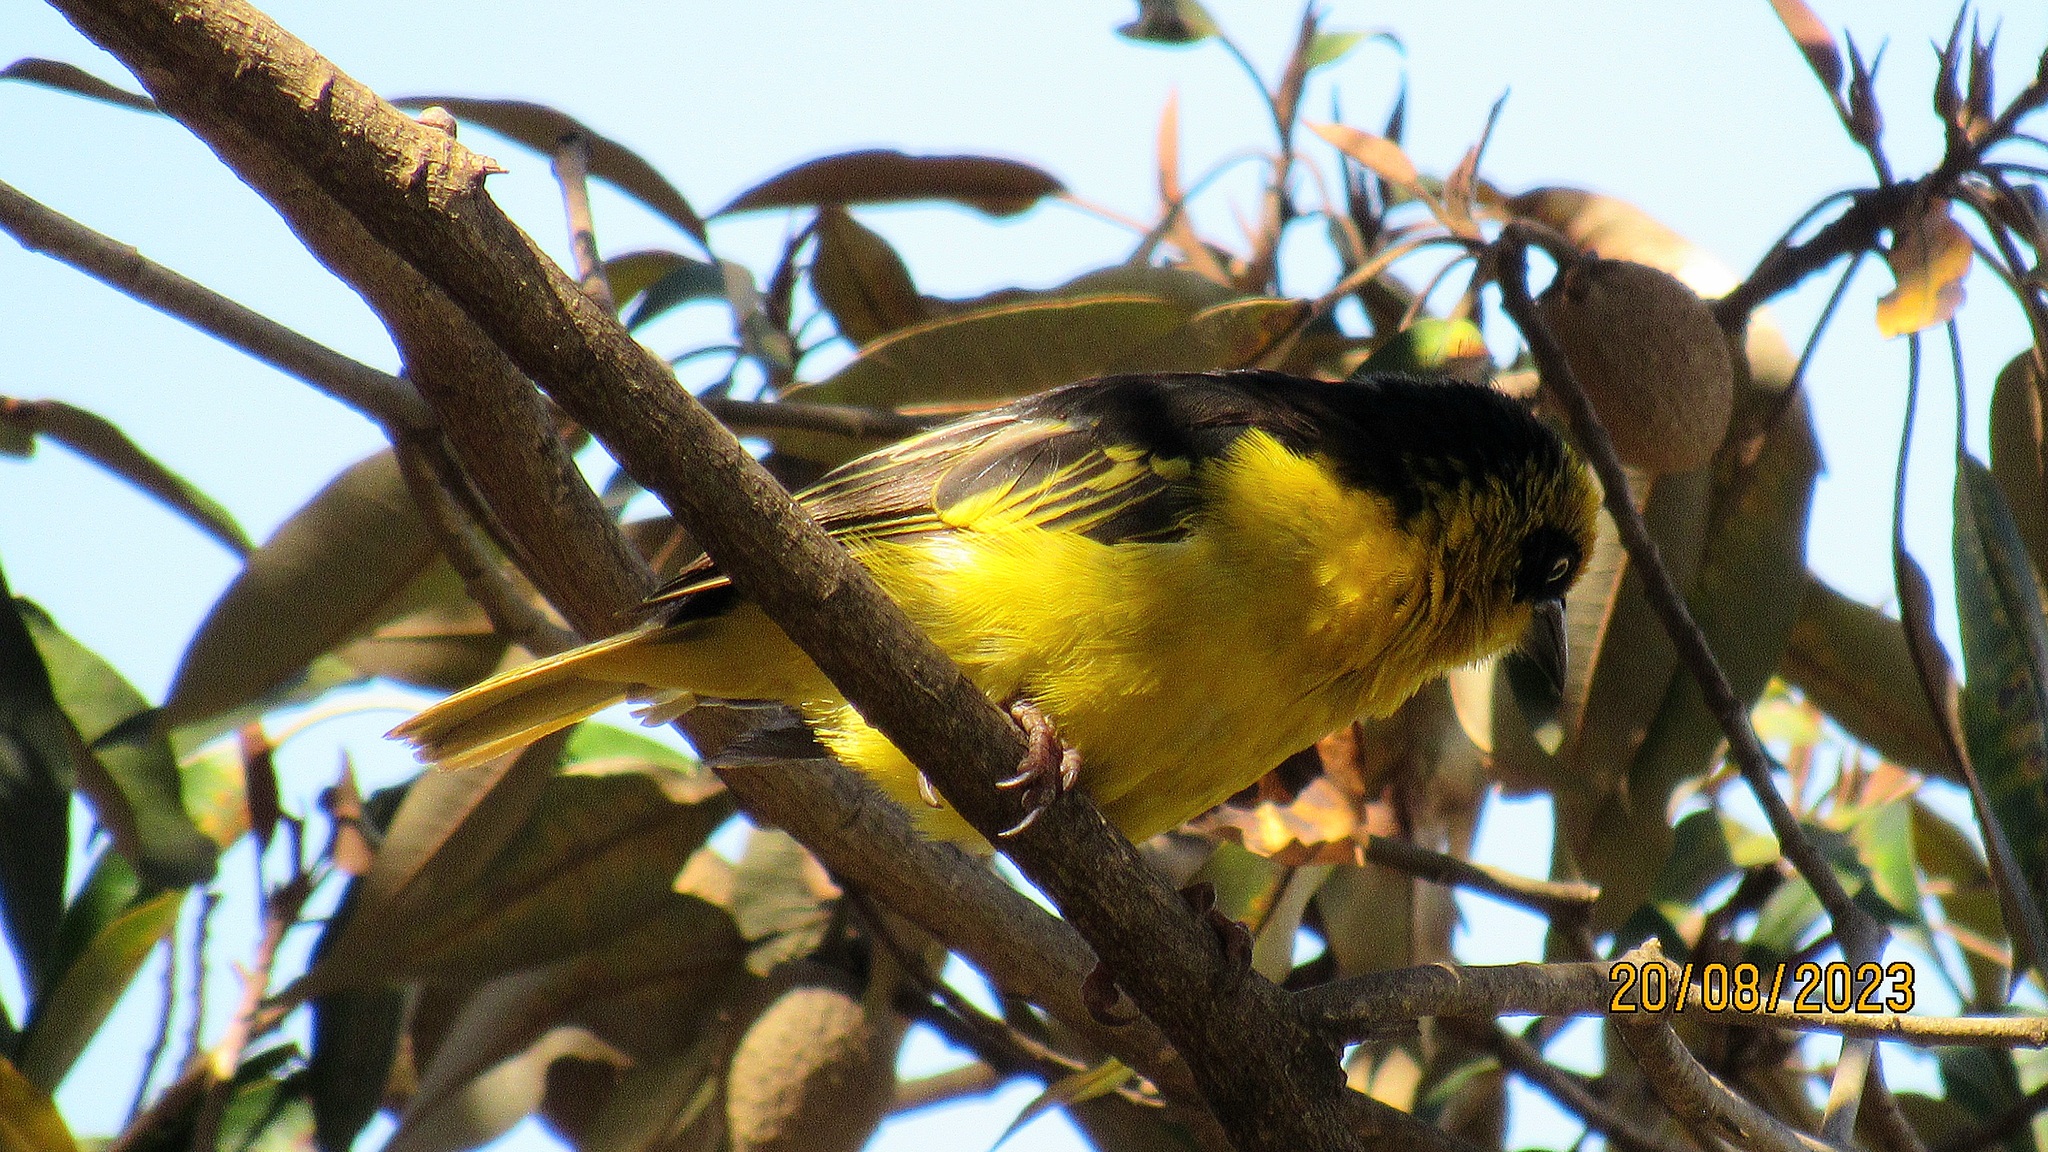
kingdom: Animalia
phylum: Chordata
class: Aves
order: Passeriformes
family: Ploceidae
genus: Ploceus
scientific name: Ploceus baglafecht
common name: Baglafecht weaver
